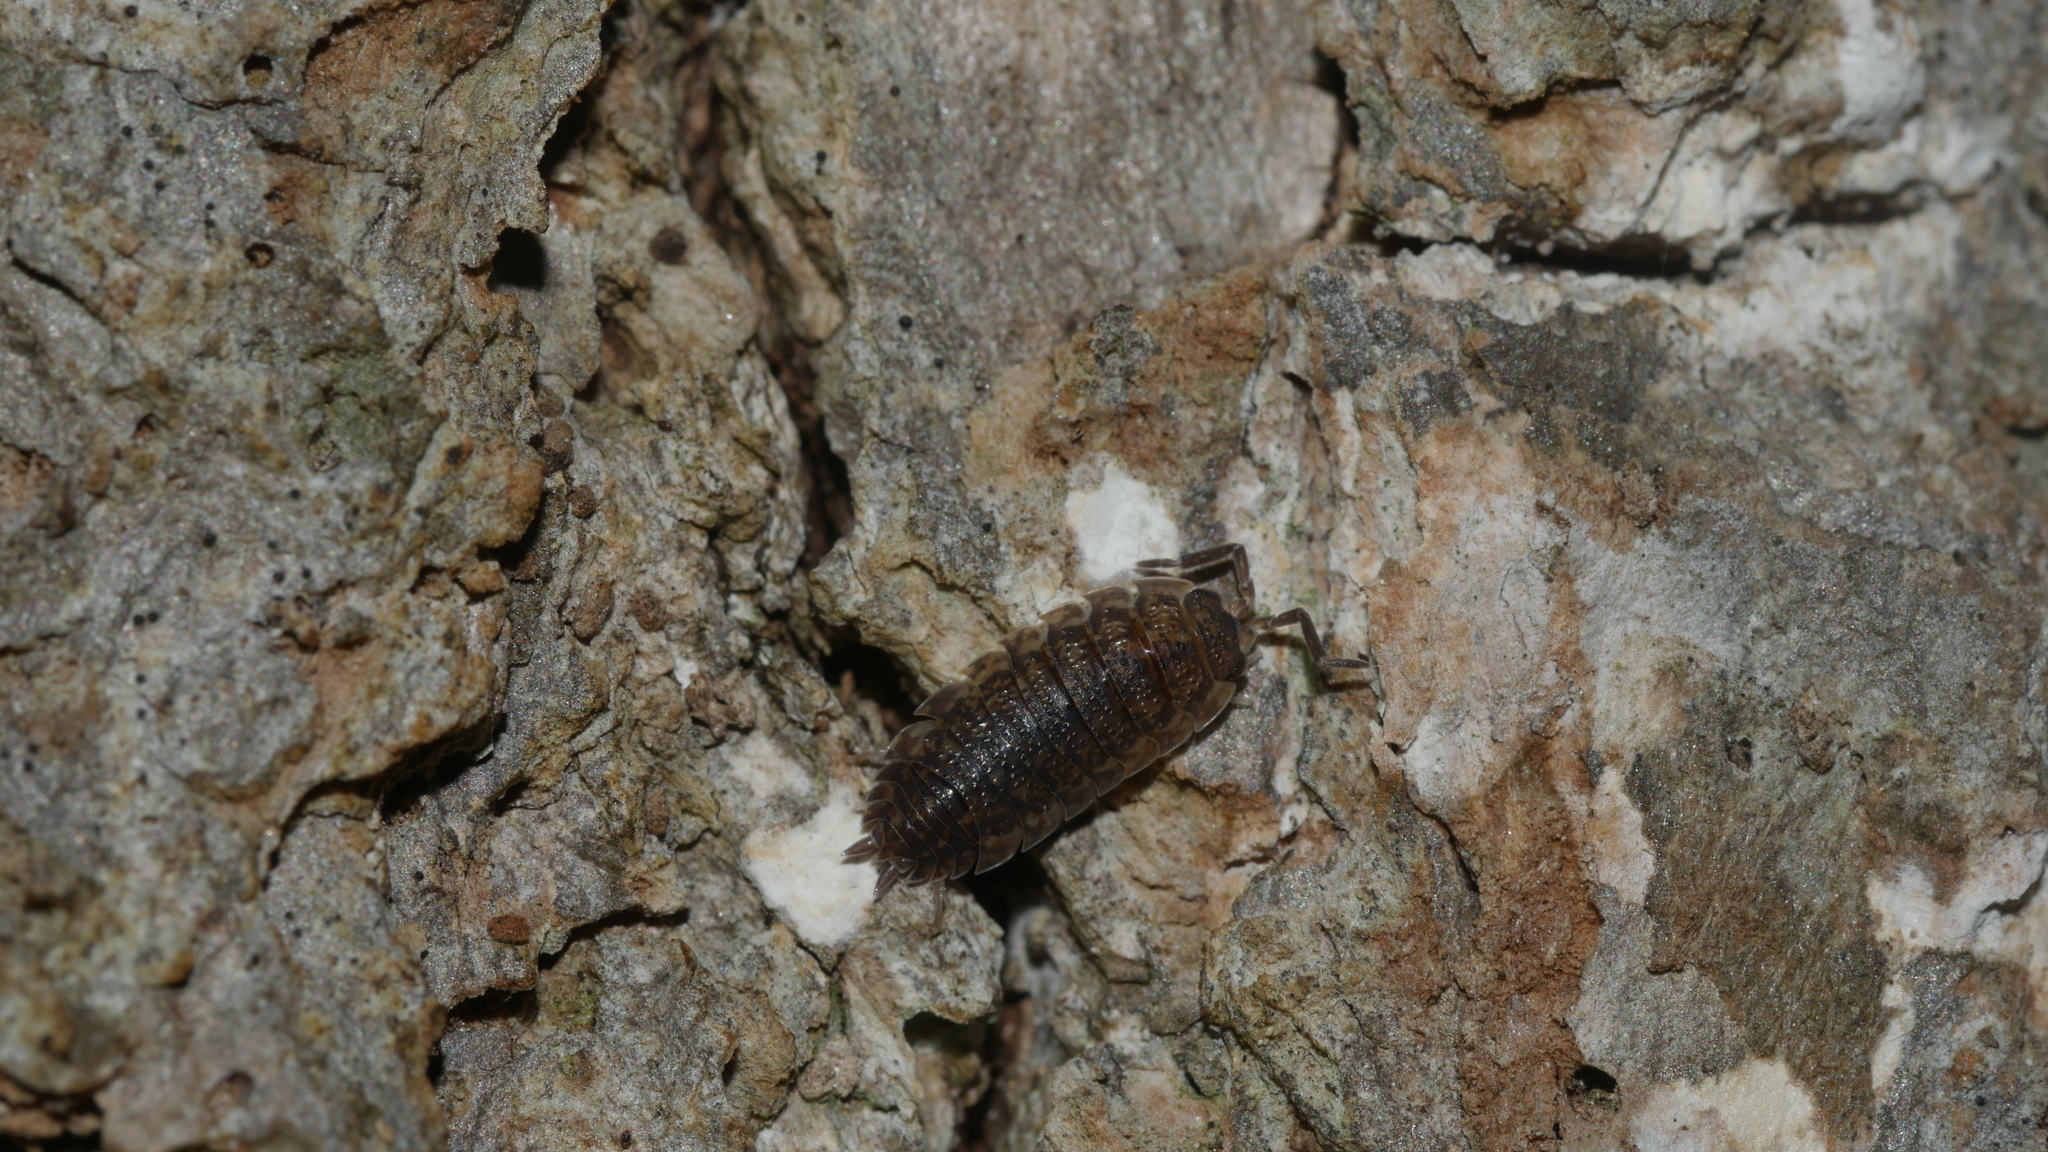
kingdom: Animalia
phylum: Arthropoda
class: Malacostraca
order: Isopoda
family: Porcellionidae
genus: Porcellio
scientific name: Porcellio scaber
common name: Common rough woodlouse
